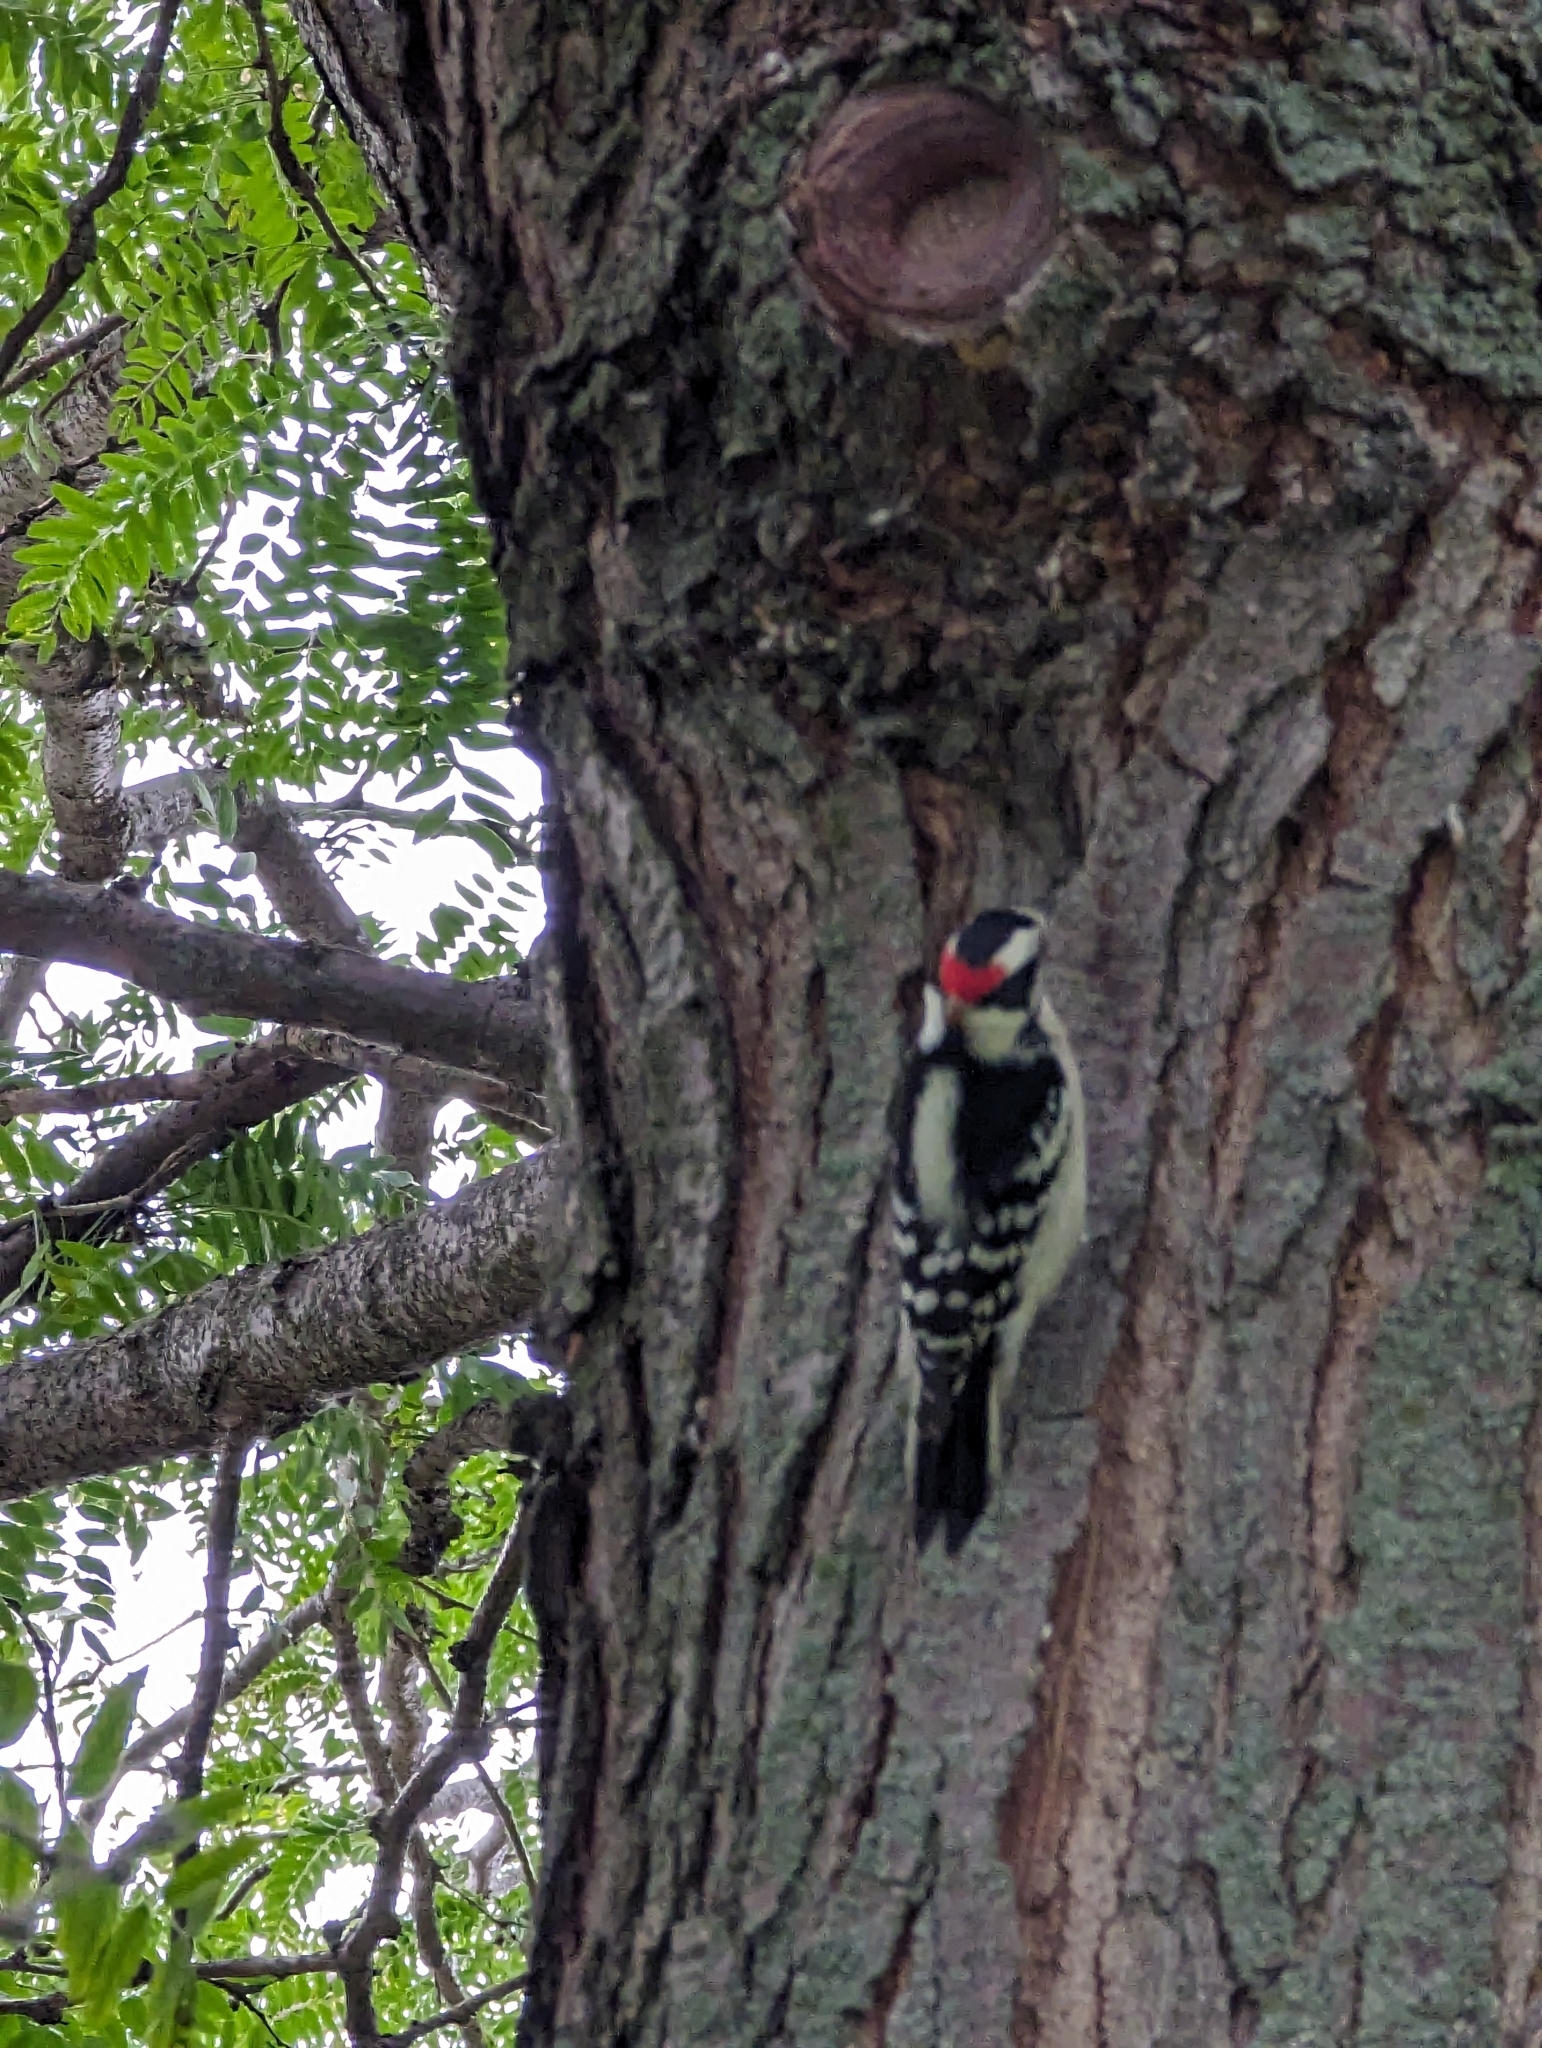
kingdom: Animalia
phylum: Chordata
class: Aves
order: Piciformes
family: Picidae
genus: Dryobates
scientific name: Dryobates pubescens
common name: Downy woodpecker
